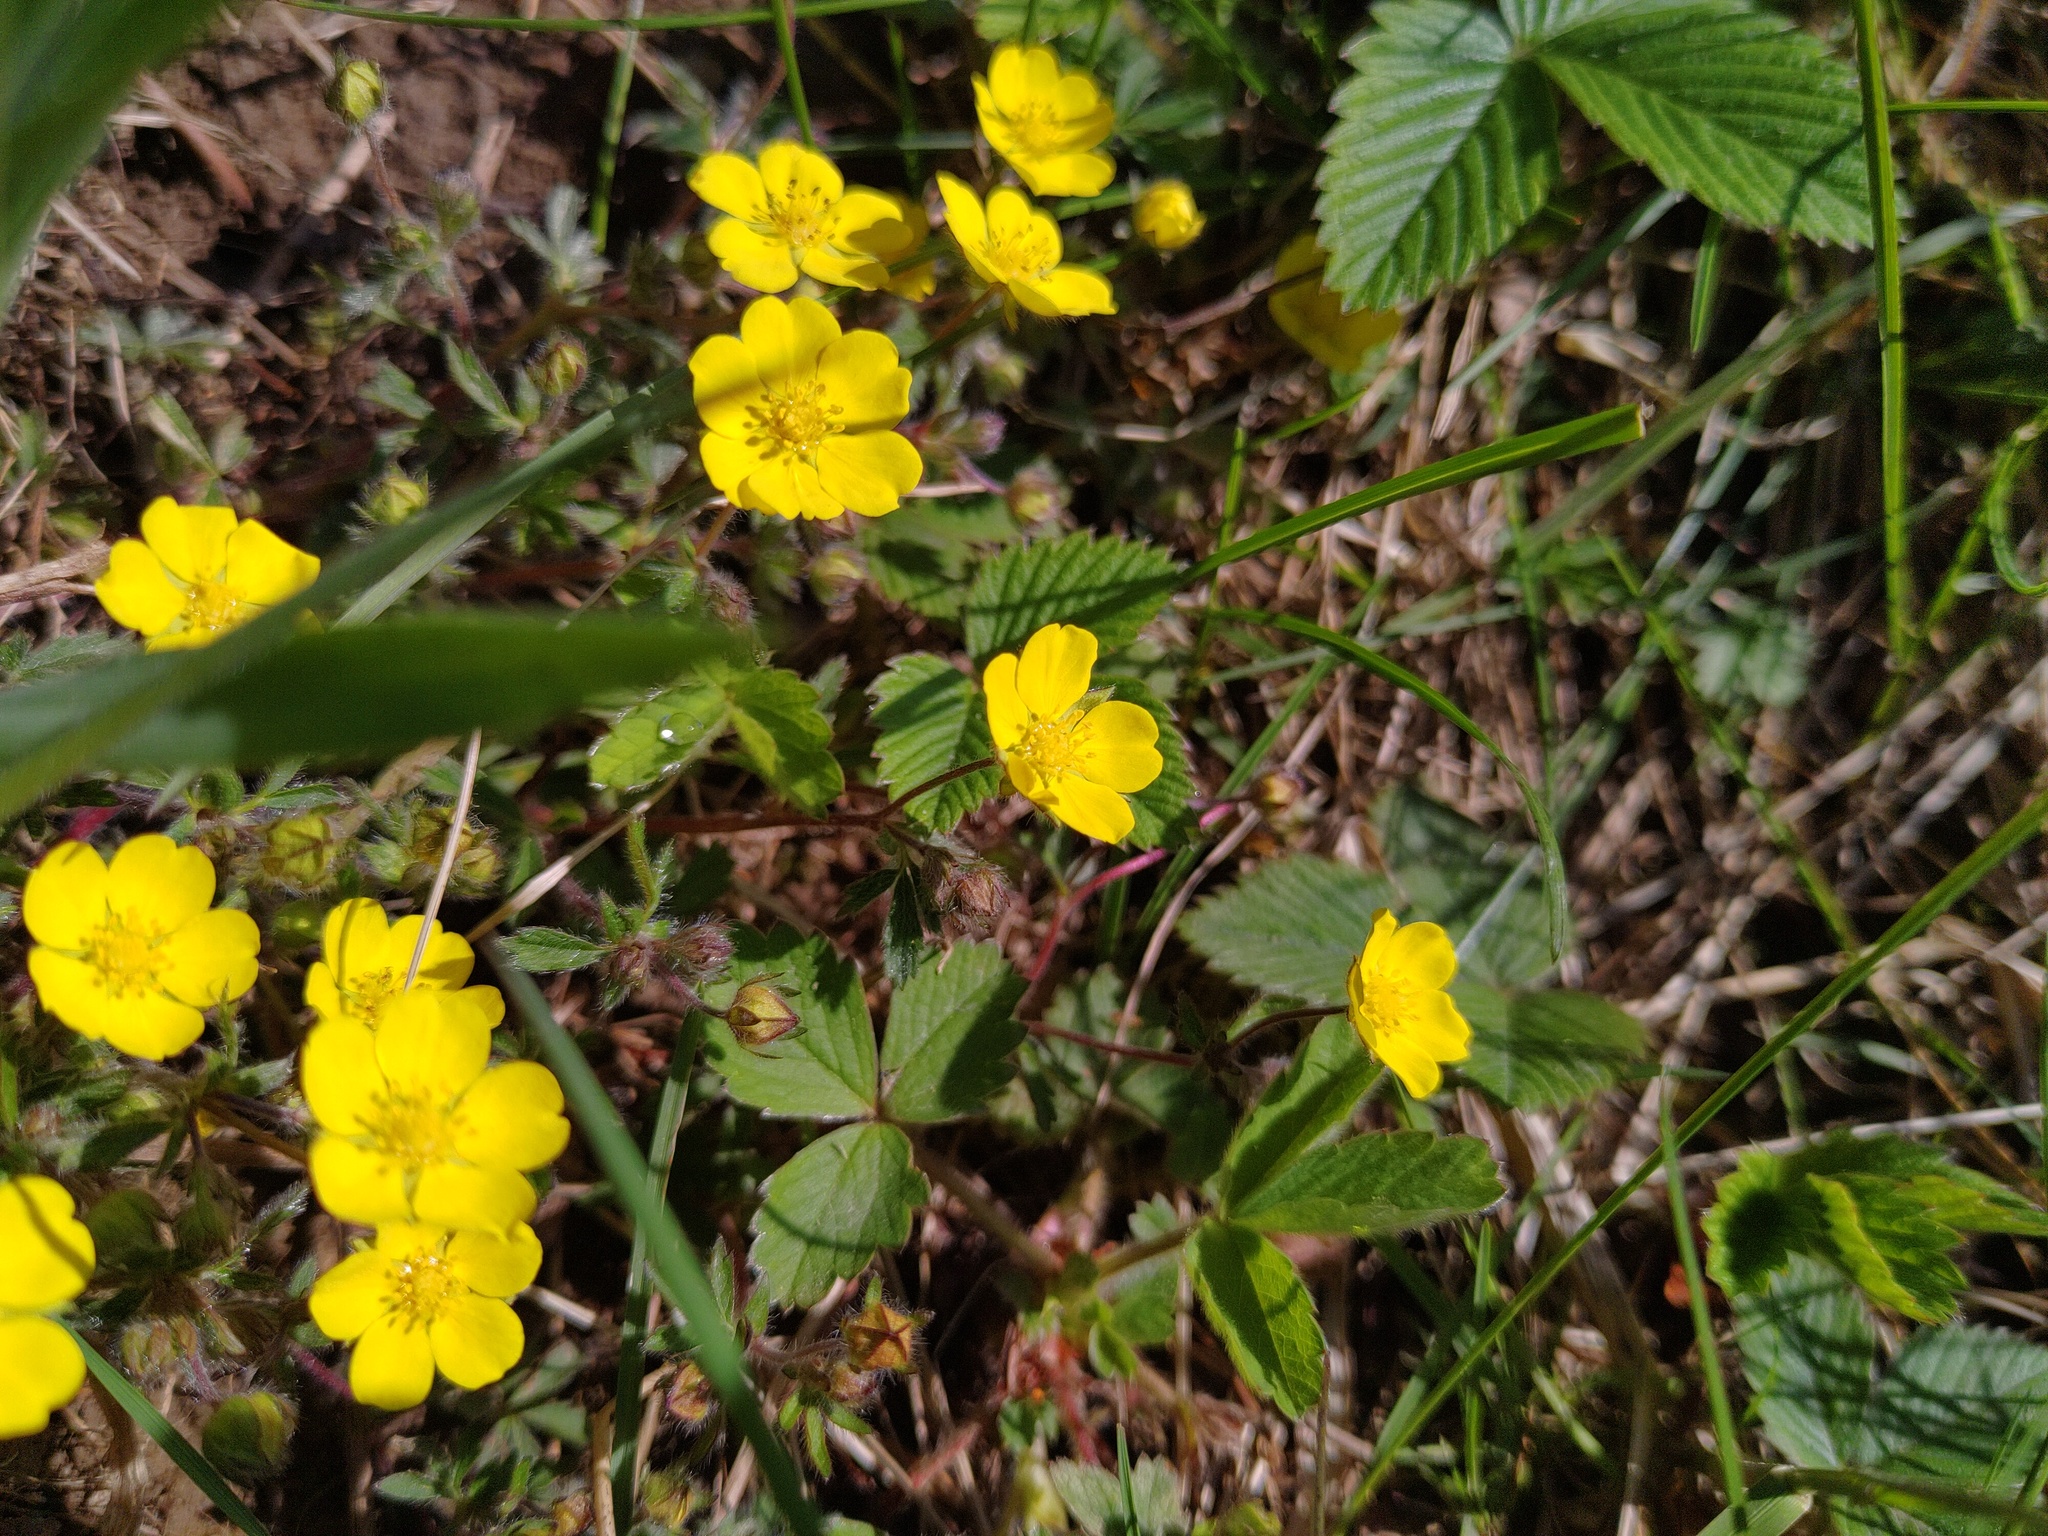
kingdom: Plantae
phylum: Tracheophyta
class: Magnoliopsida
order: Rosales
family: Rosaceae
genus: Potentilla
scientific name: Potentilla heptaphylla
